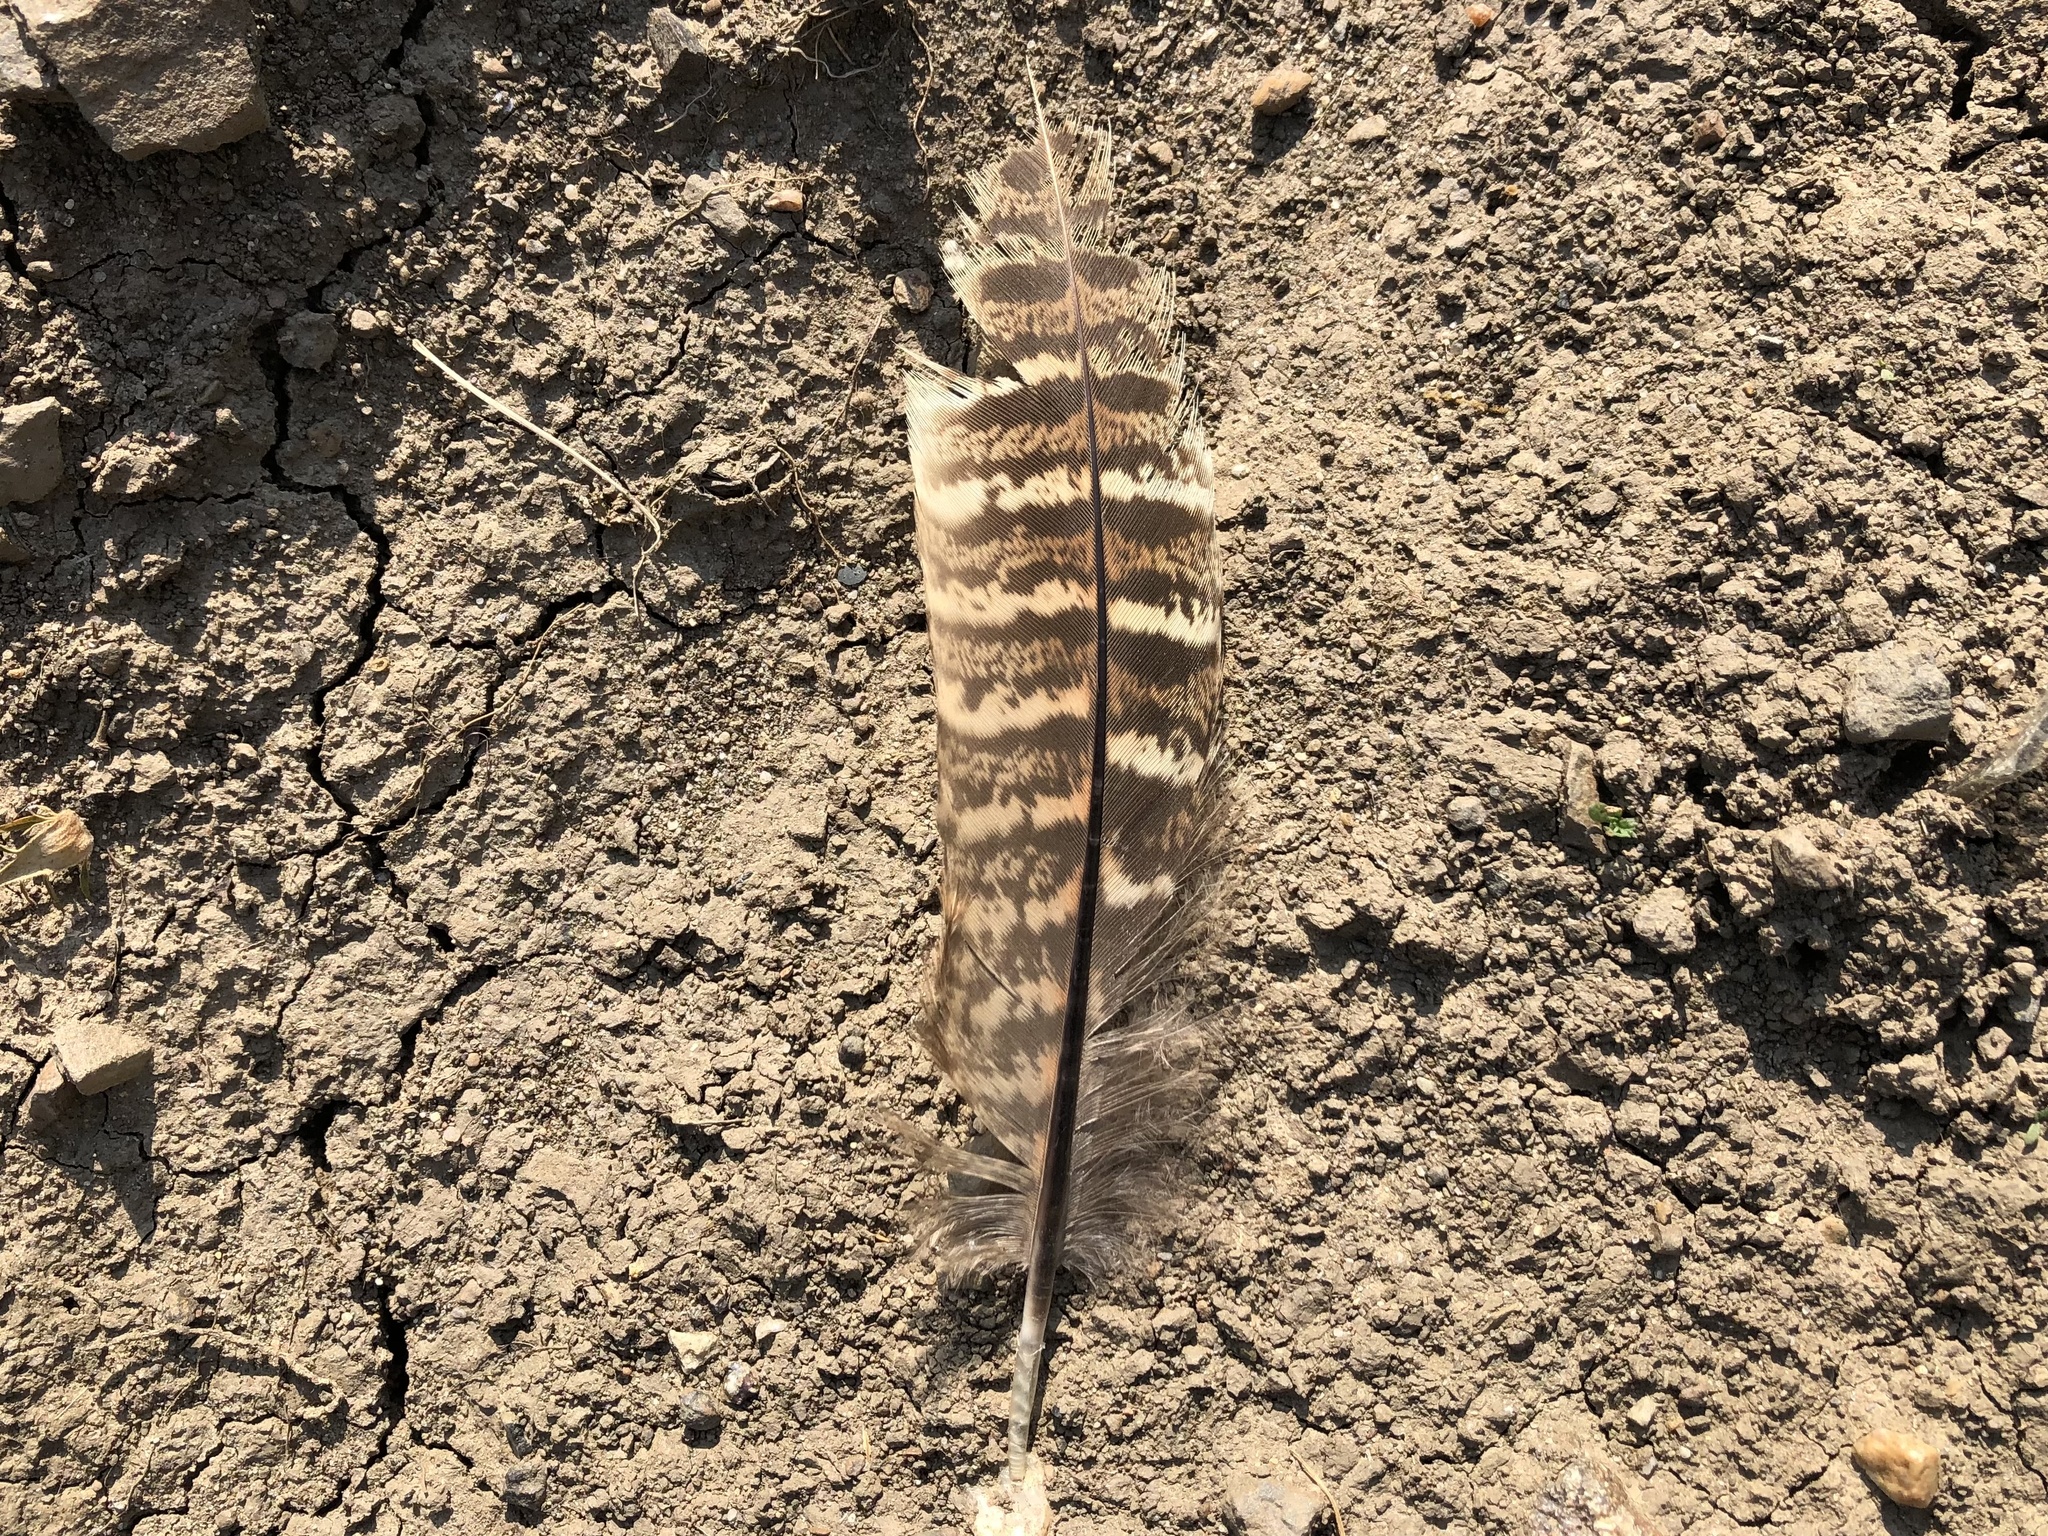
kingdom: Animalia
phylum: Chordata
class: Aves
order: Galliformes
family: Phasianidae
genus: Phasianus
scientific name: Phasianus colchicus
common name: Common pheasant
